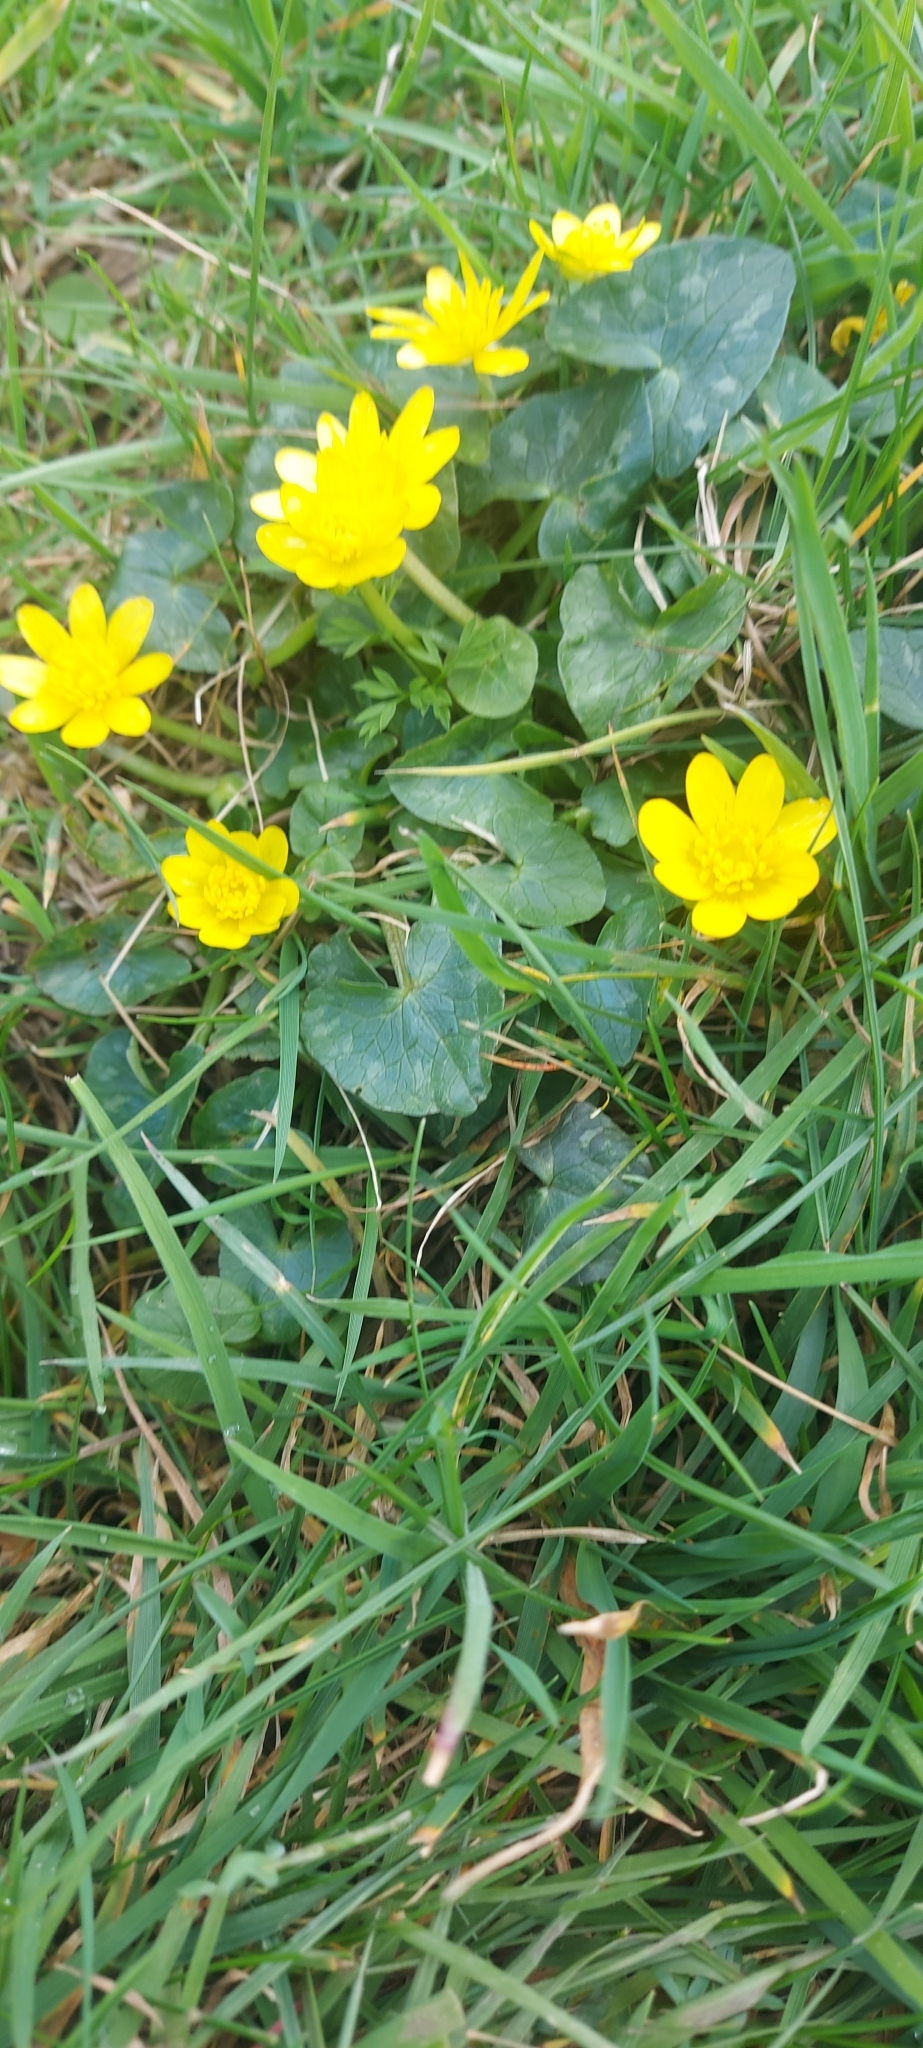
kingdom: Plantae
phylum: Tracheophyta
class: Magnoliopsida
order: Ranunculales
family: Ranunculaceae
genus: Ficaria
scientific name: Ficaria verna
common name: Lesser celandine
